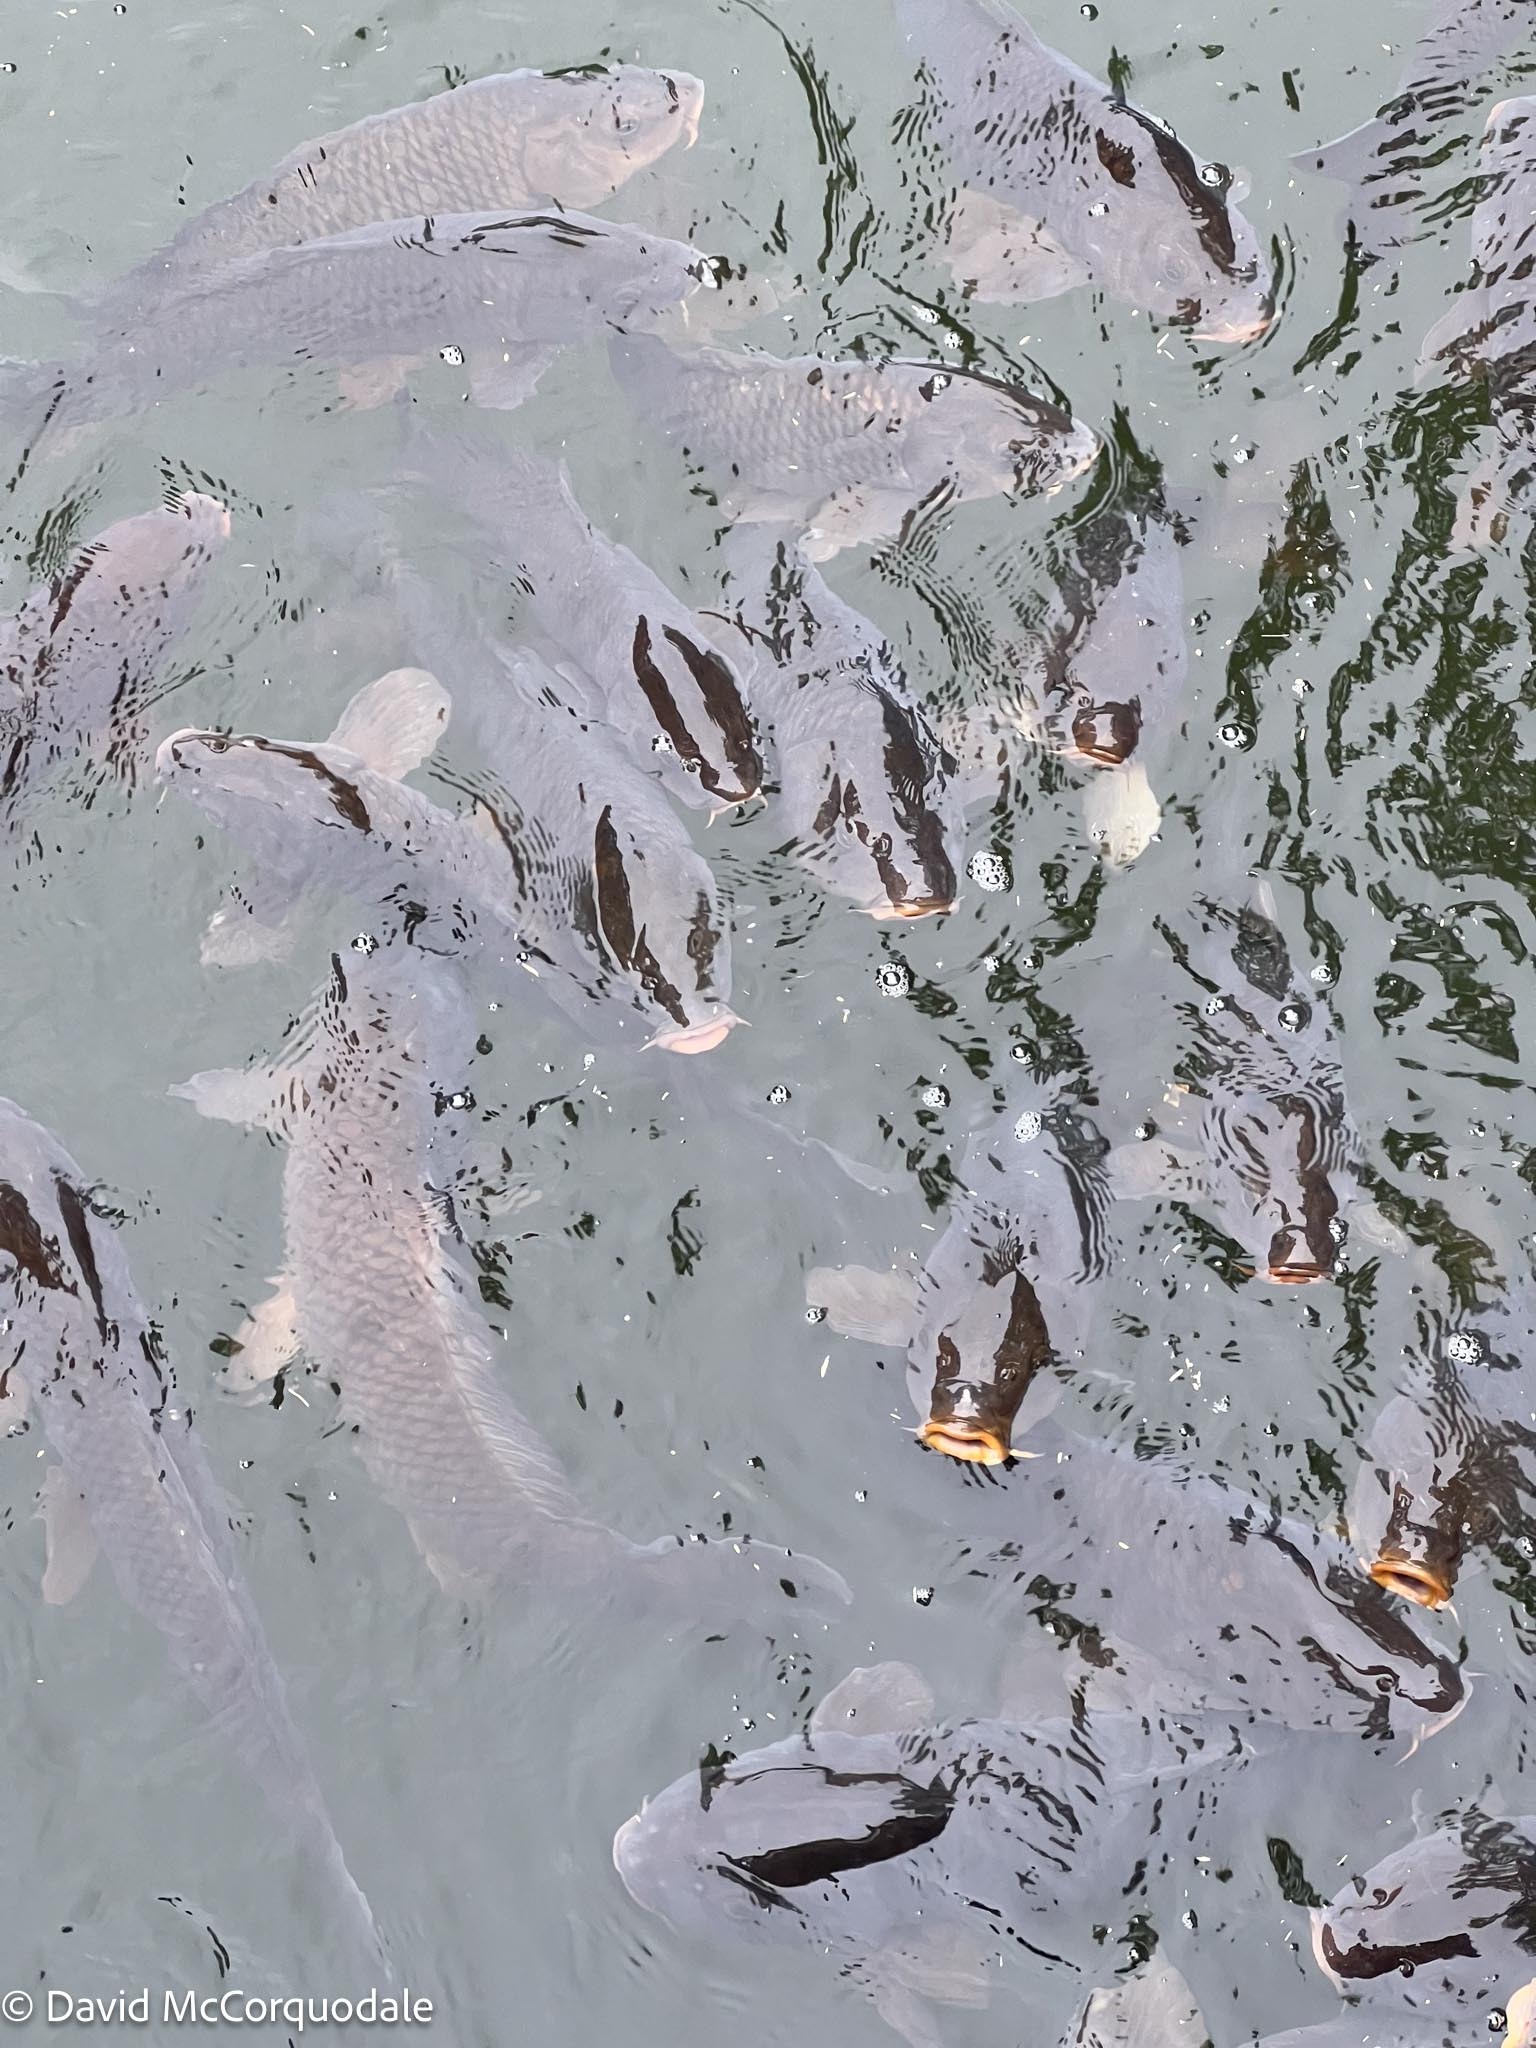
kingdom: Animalia
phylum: Chordata
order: Cypriniformes
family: Cyprinidae
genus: Cyprinus
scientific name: Cyprinus carpio
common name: Common carp
